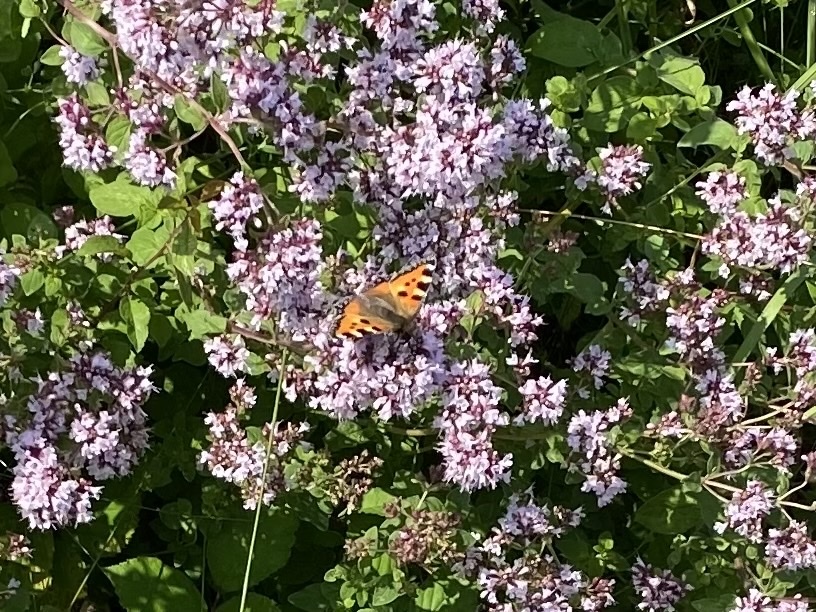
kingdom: Animalia
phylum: Arthropoda
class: Insecta
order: Lepidoptera
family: Nymphalidae
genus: Aglais
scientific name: Aglais urticae
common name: Small tortoiseshell
